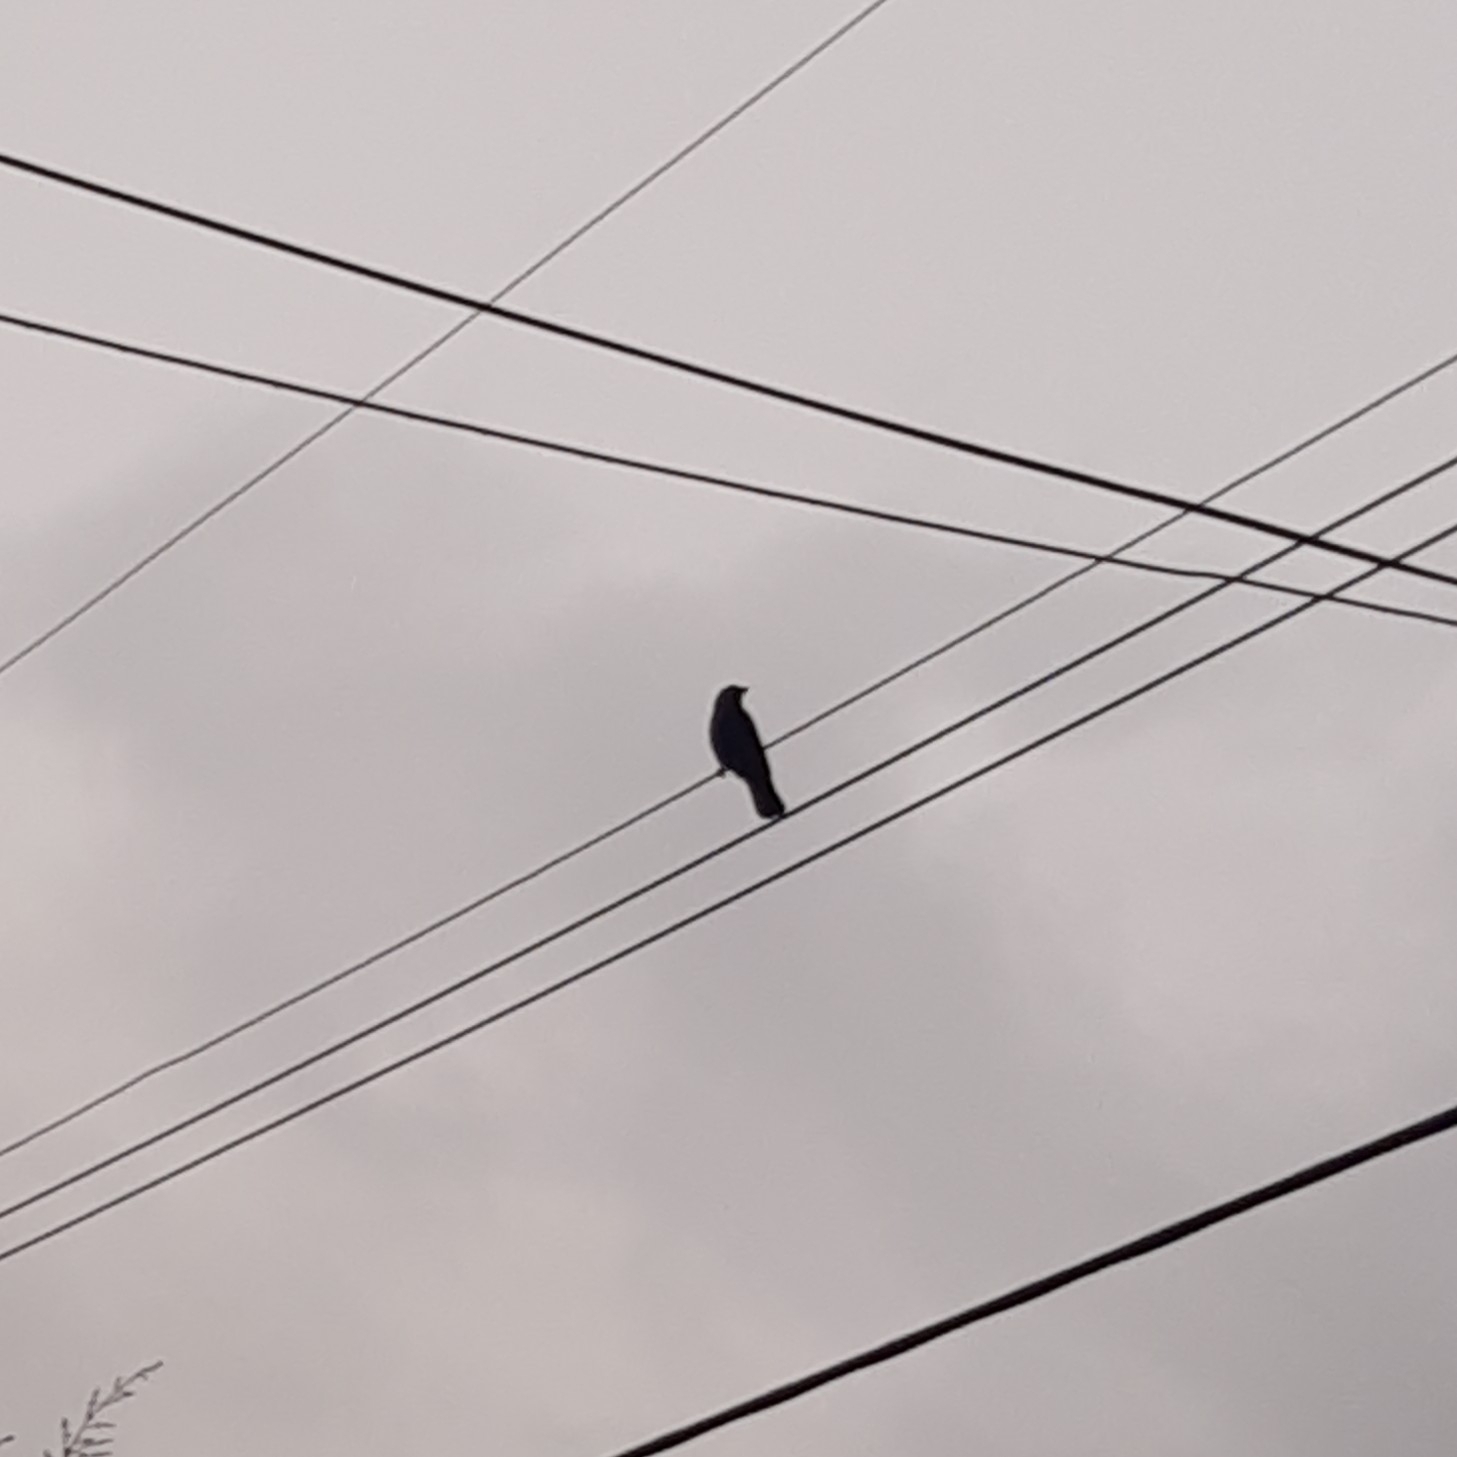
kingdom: Animalia
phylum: Chordata
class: Aves
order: Passeriformes
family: Corvidae
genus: Corvus
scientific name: Corvus brachyrhynchos
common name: American crow
